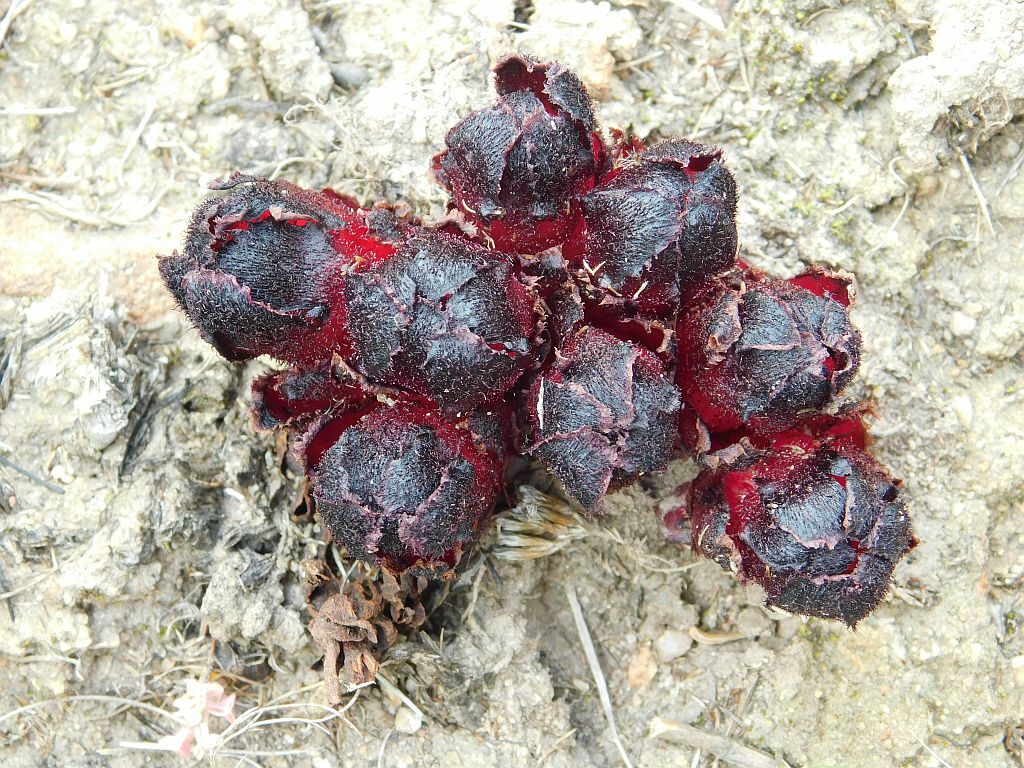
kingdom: Plantae
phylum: Tracheophyta
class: Magnoliopsida
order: Malvales
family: Cytinaceae
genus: Cytinus
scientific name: Cytinus sanguineus
